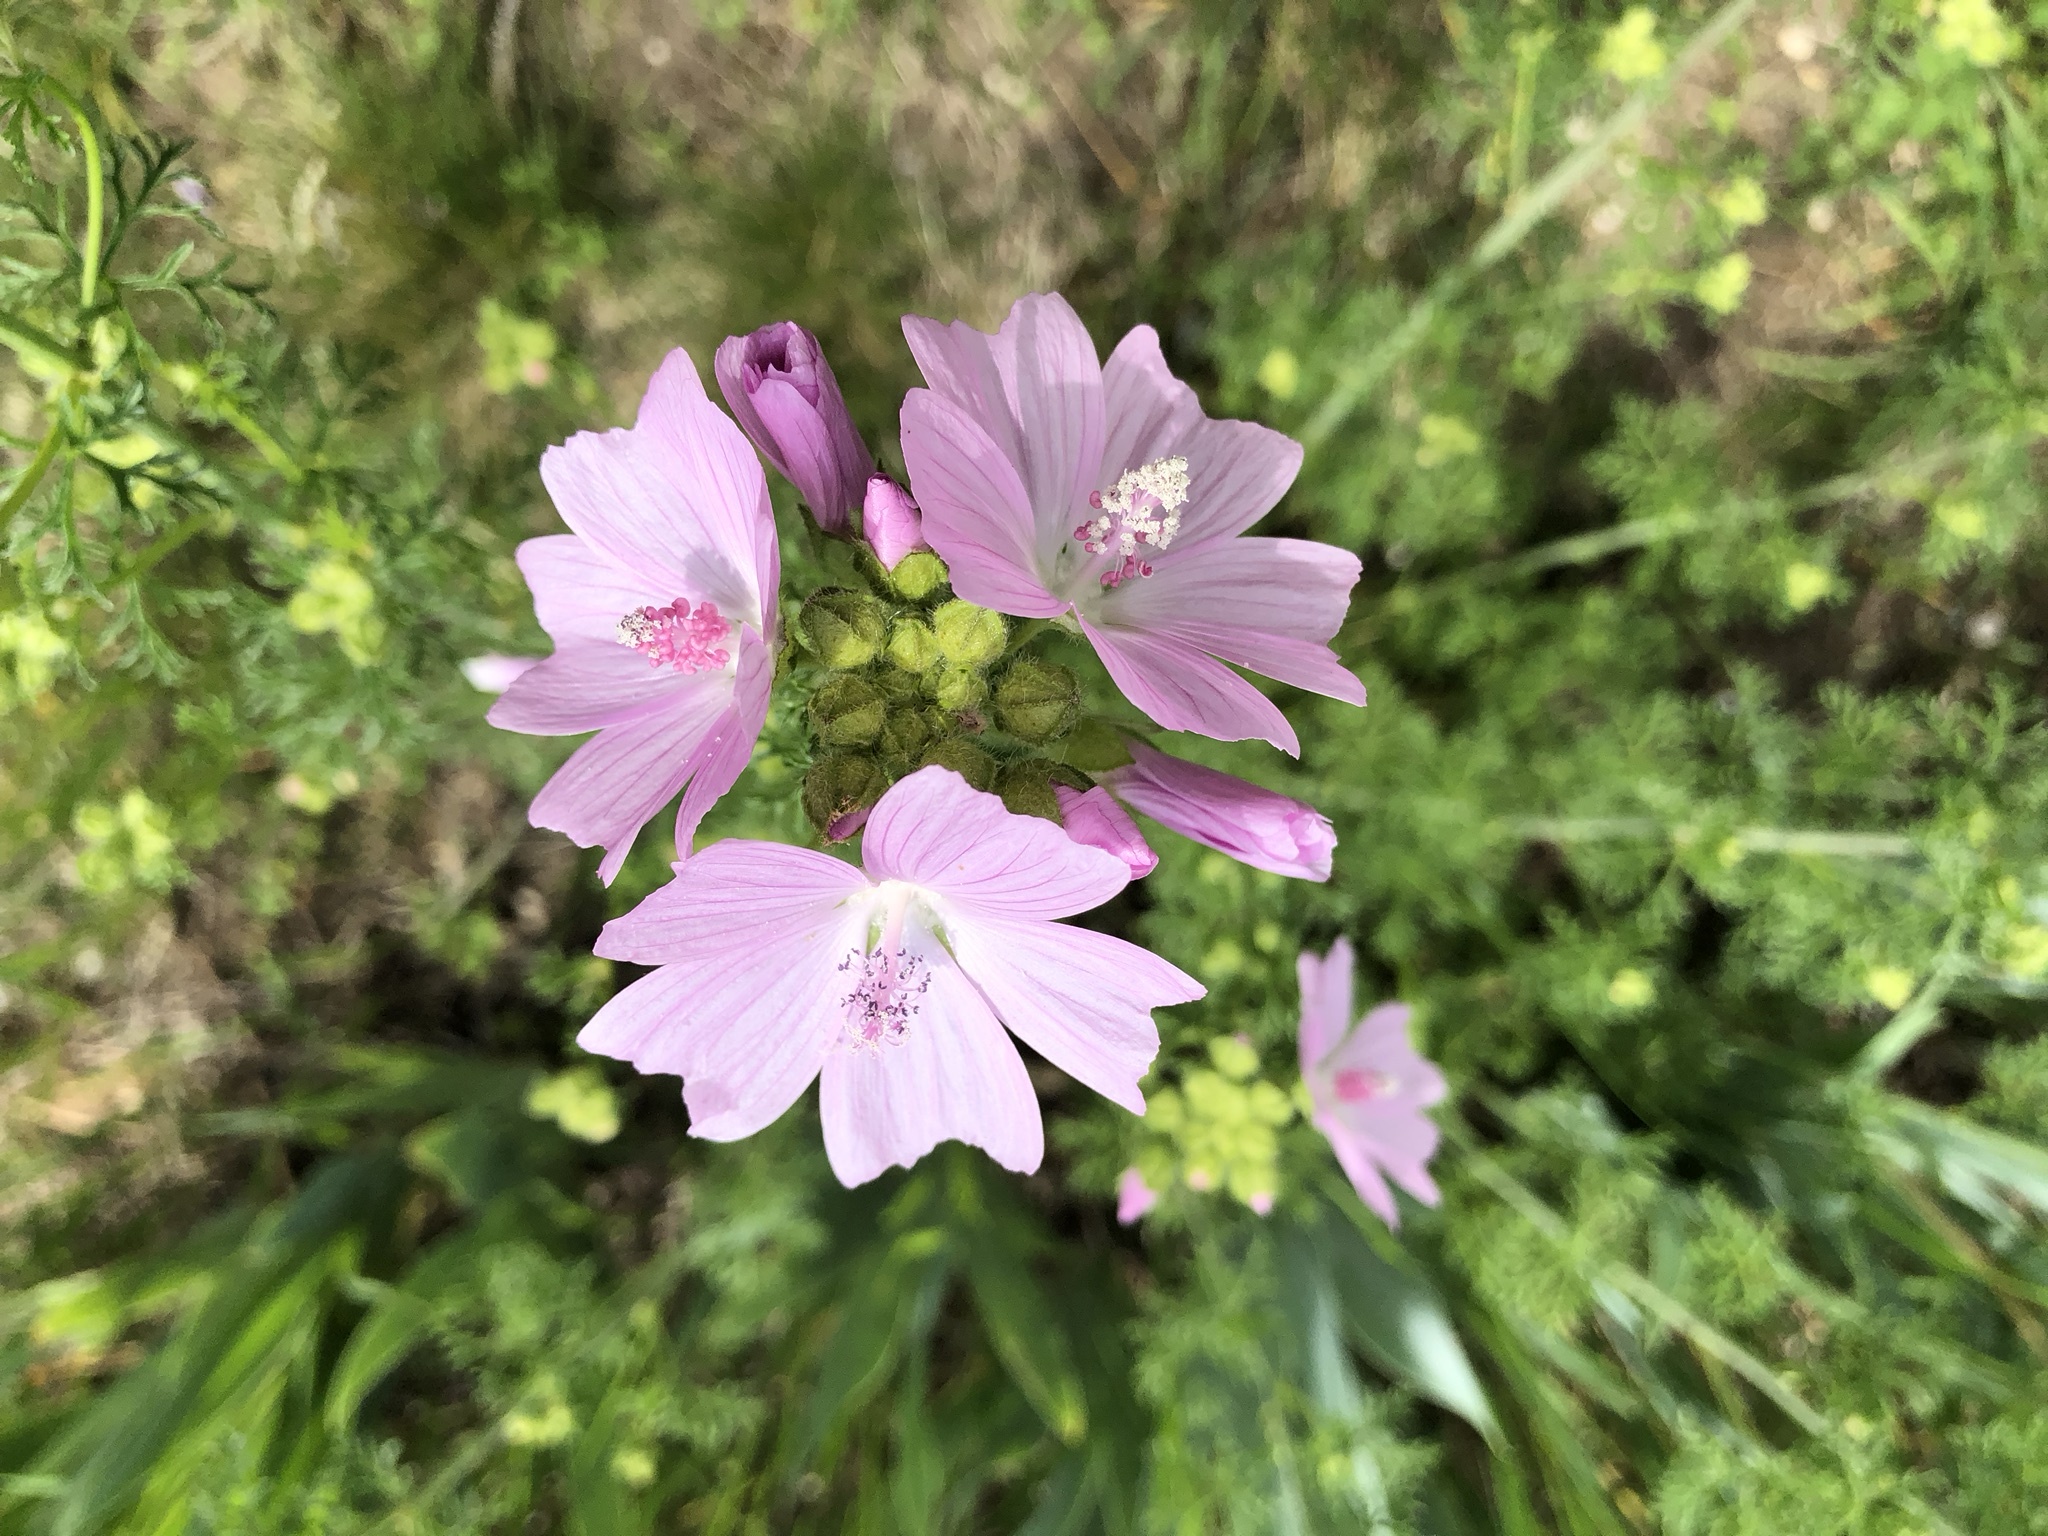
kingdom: Plantae
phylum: Tracheophyta
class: Magnoliopsida
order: Malvales
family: Malvaceae
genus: Malva
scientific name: Malva moschata
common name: Musk mallow
